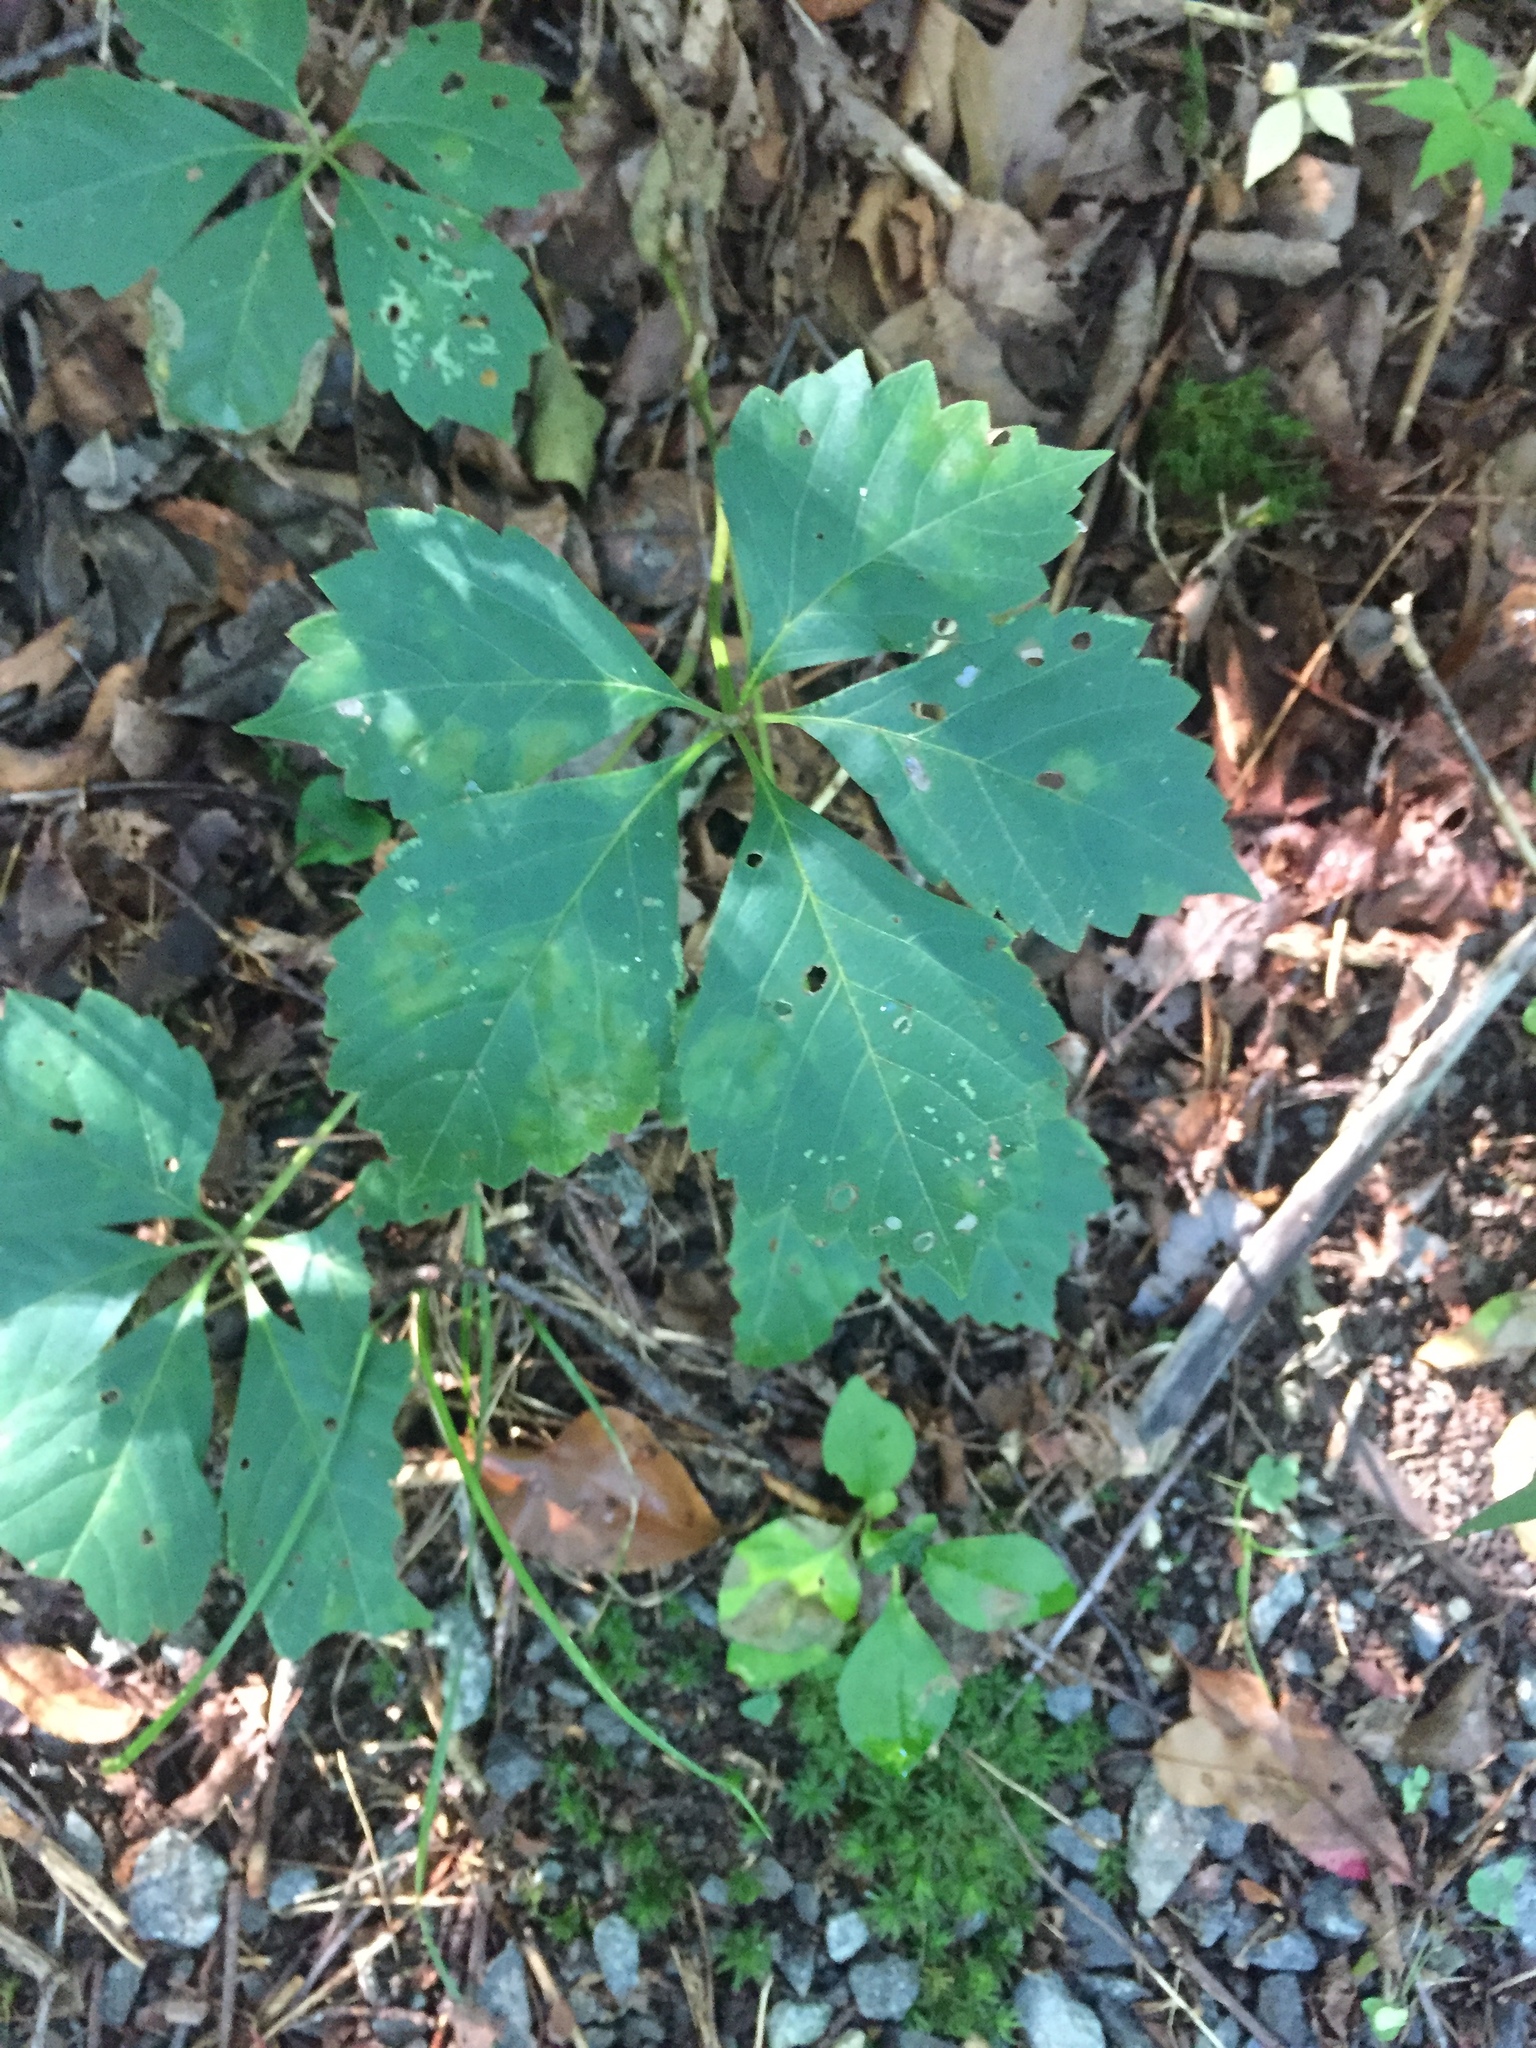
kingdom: Plantae
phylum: Tracheophyta
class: Magnoliopsida
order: Vitales
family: Vitaceae
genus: Parthenocissus
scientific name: Parthenocissus quinquefolia
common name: Virginia-creeper
